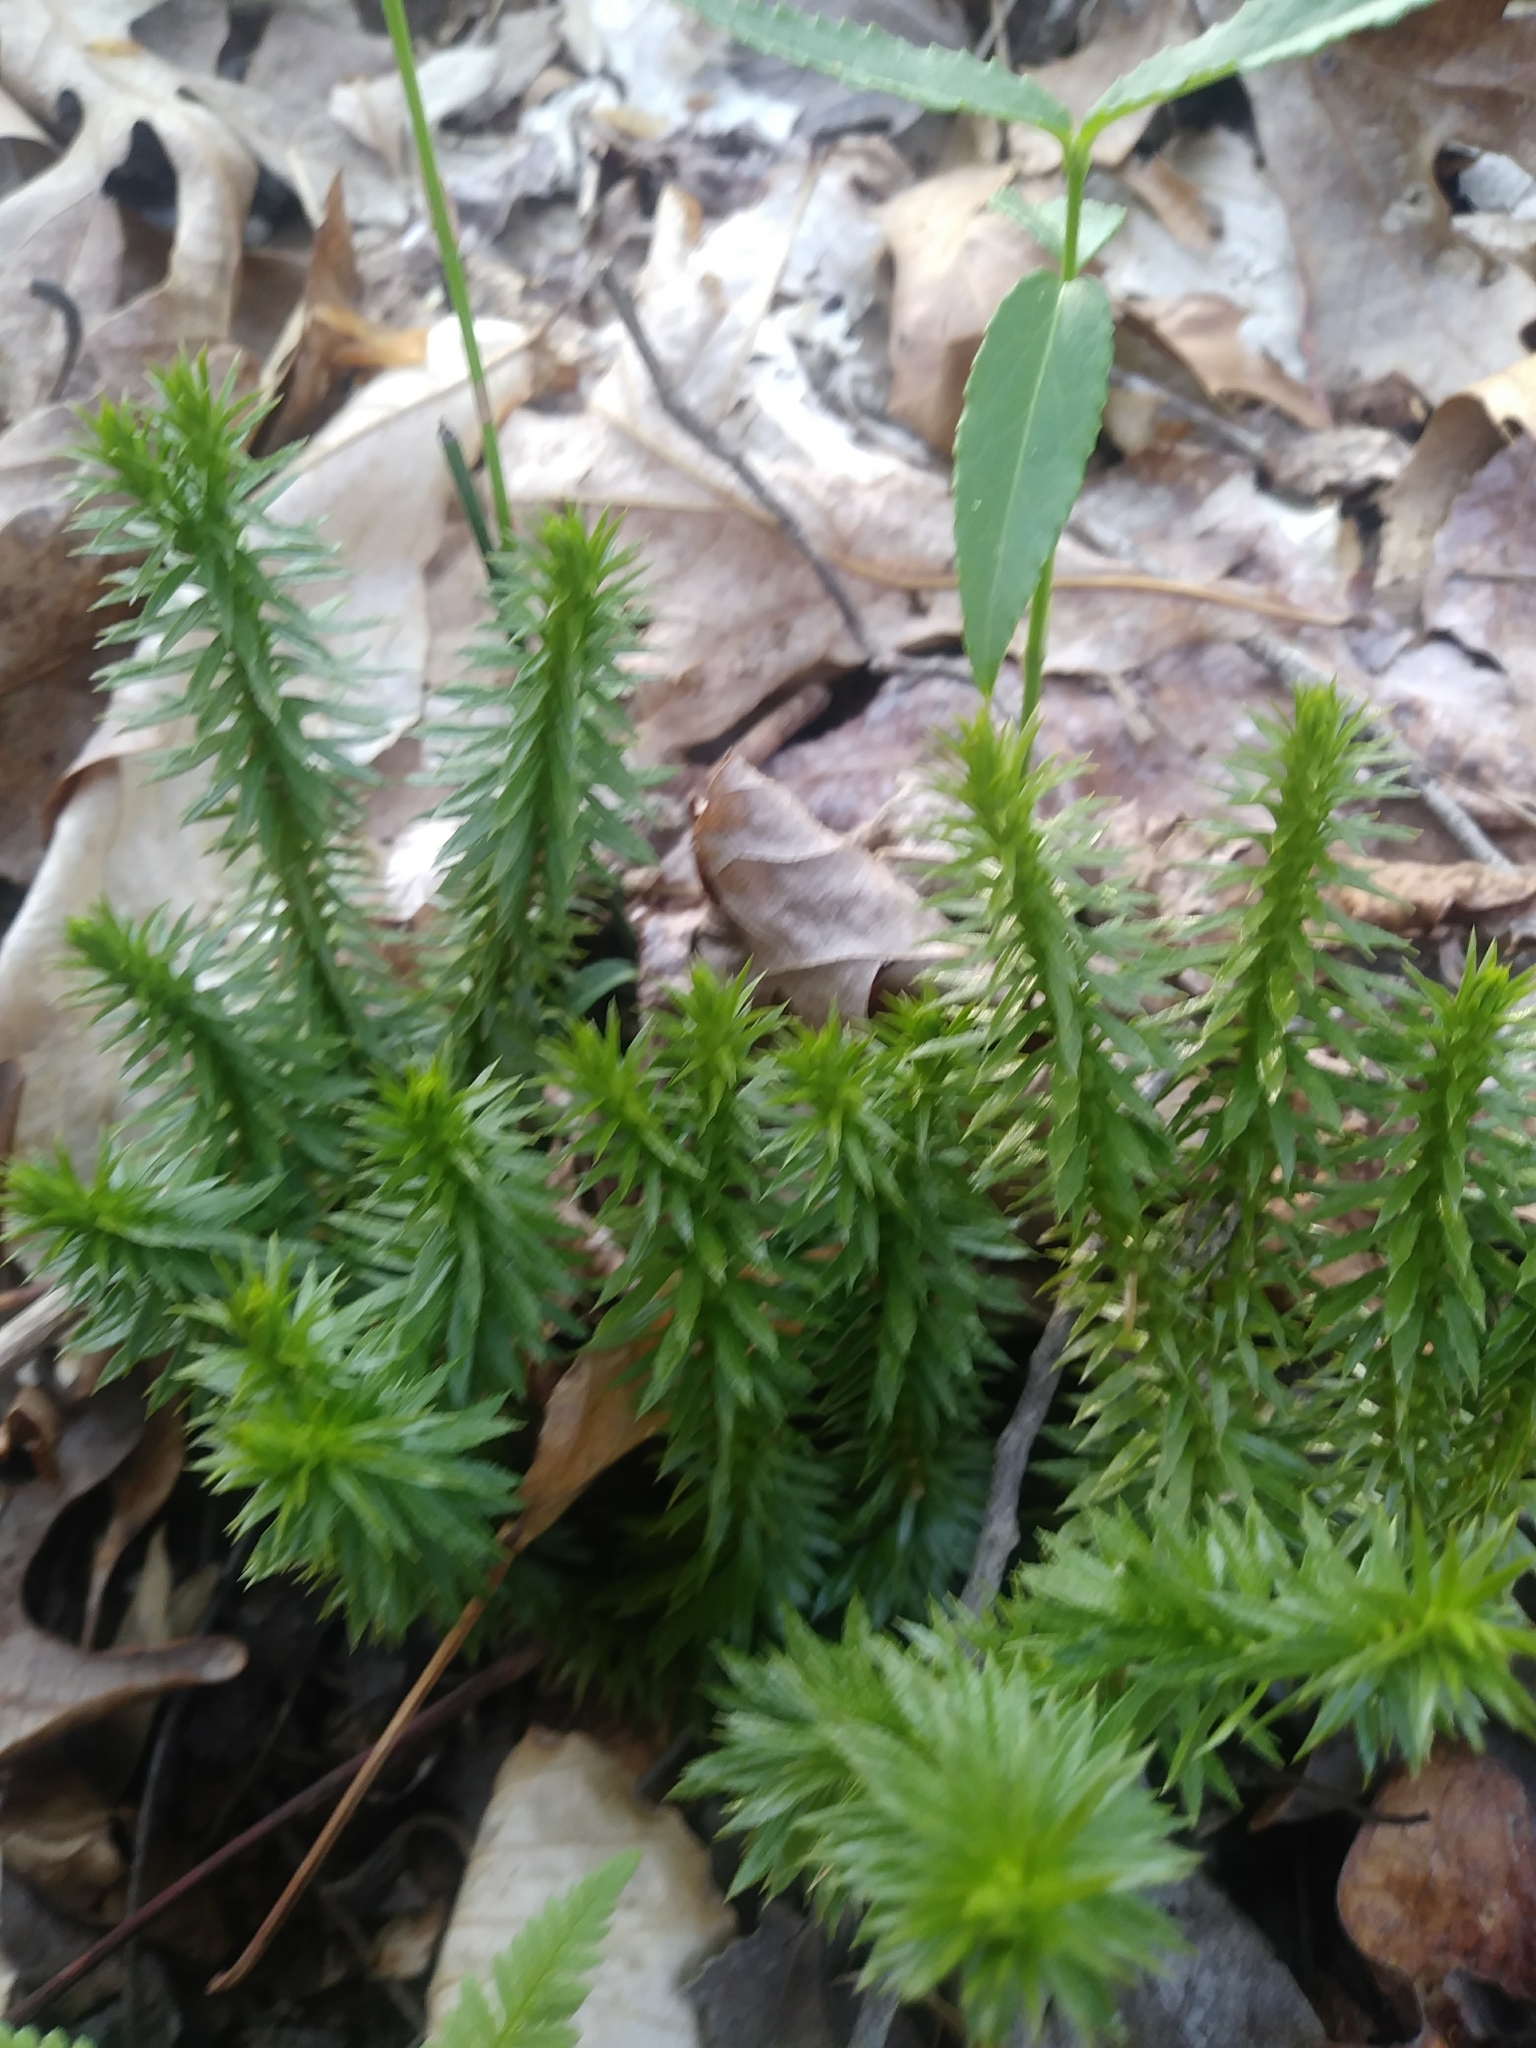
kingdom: Plantae
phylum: Tracheophyta
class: Lycopodiopsida
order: Lycopodiales
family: Lycopodiaceae
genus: Huperzia
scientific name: Huperzia lucidula
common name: Shining clubmoss
